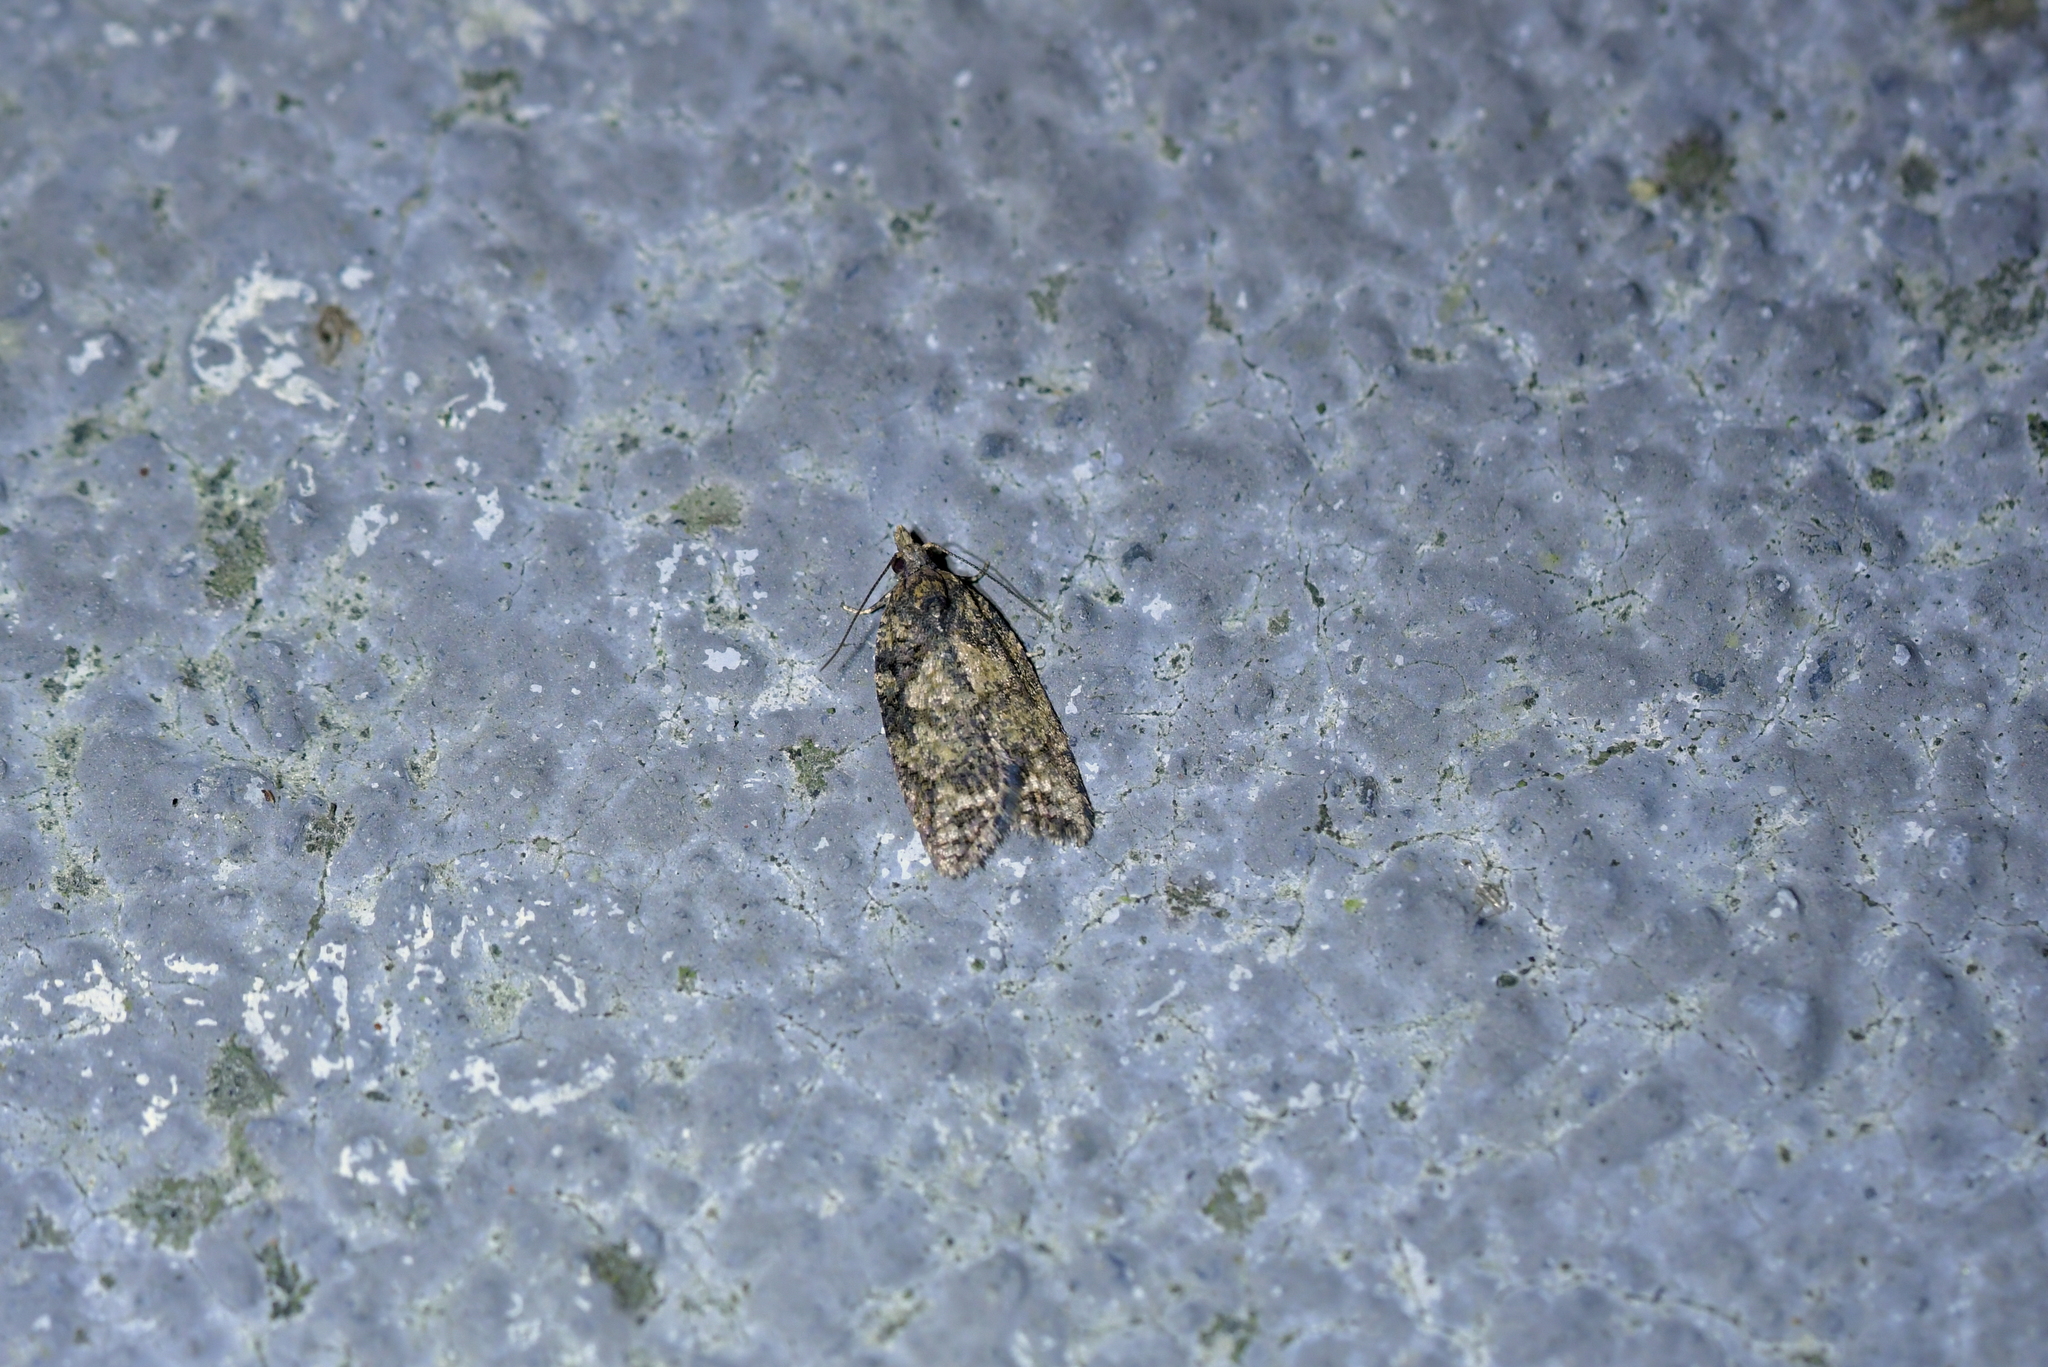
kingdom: Animalia
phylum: Arthropoda
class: Insecta
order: Lepidoptera
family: Tortricidae
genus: Capua
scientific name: Capua intractana
